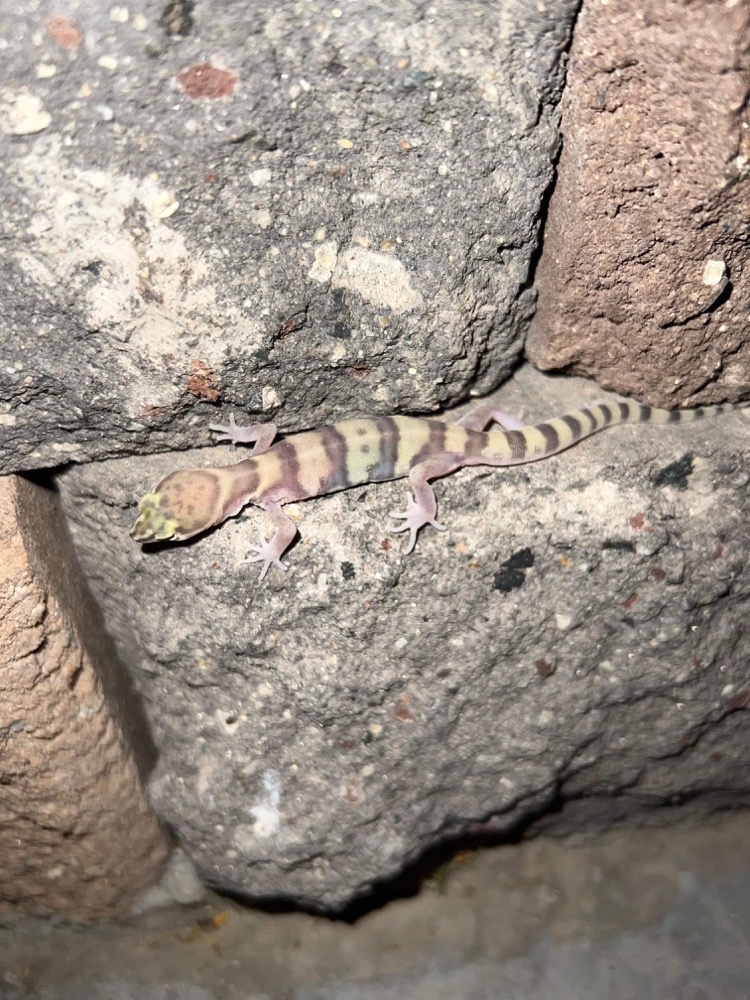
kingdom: Animalia
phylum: Chordata
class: Squamata
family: Eublepharidae
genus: Coleonyx
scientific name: Coleonyx variegatus
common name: Western banded gecko
